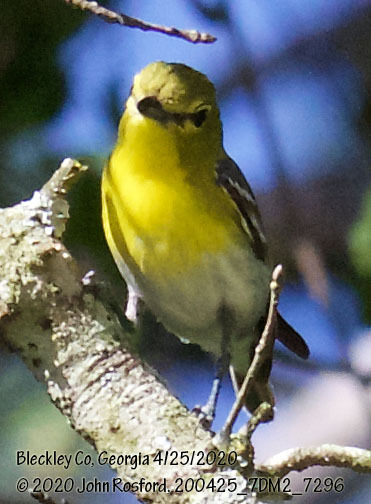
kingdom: Animalia
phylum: Chordata
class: Aves
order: Passeriformes
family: Vireonidae
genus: Vireo
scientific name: Vireo flavifrons
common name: Yellow-throated vireo
